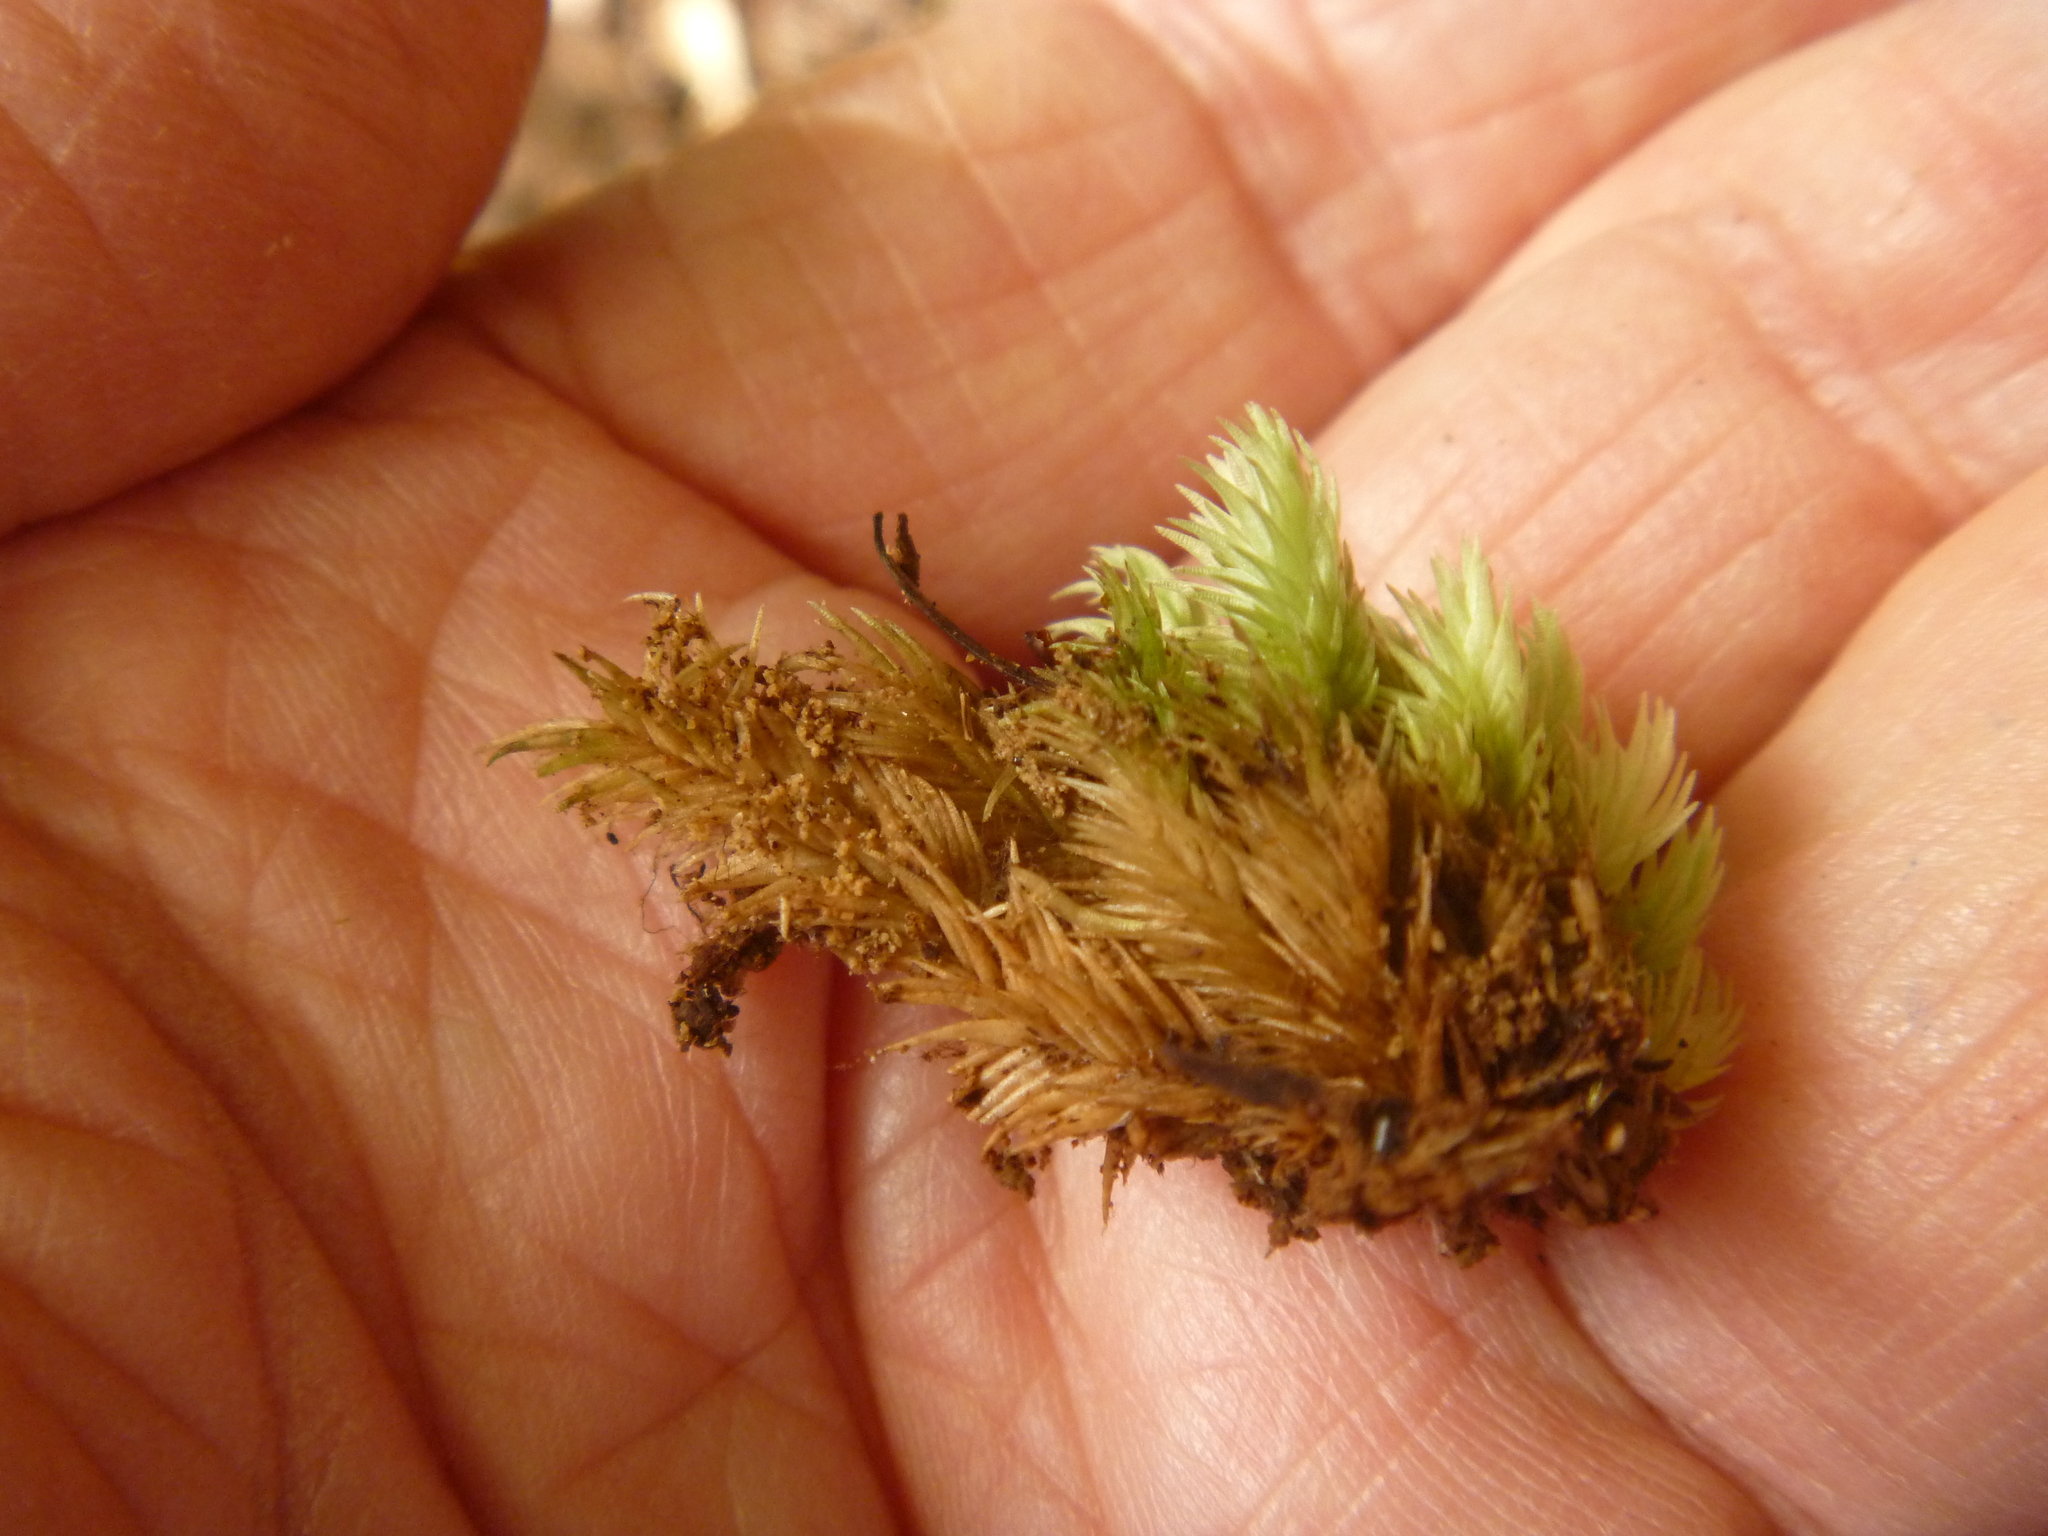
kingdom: Plantae
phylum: Bryophyta
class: Bryopsida
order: Dicranales
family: Leucobryaceae
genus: Leucobryum
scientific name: Leucobryum javense
